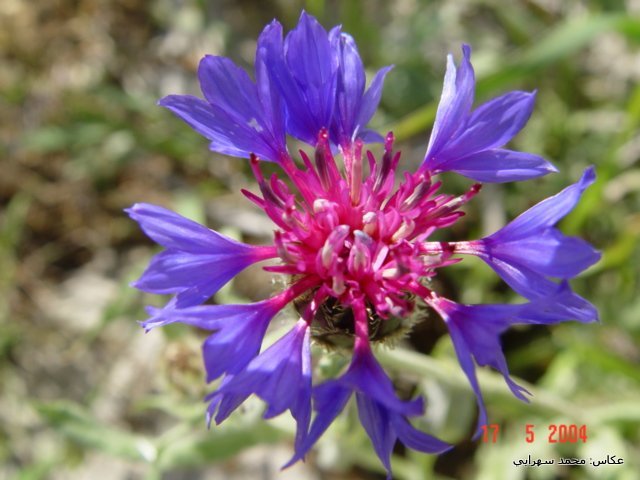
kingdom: Plantae
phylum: Tracheophyta
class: Magnoliopsida
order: Asterales
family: Asteraceae
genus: Centaurea
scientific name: Centaurea cyanus
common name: Cornflower
